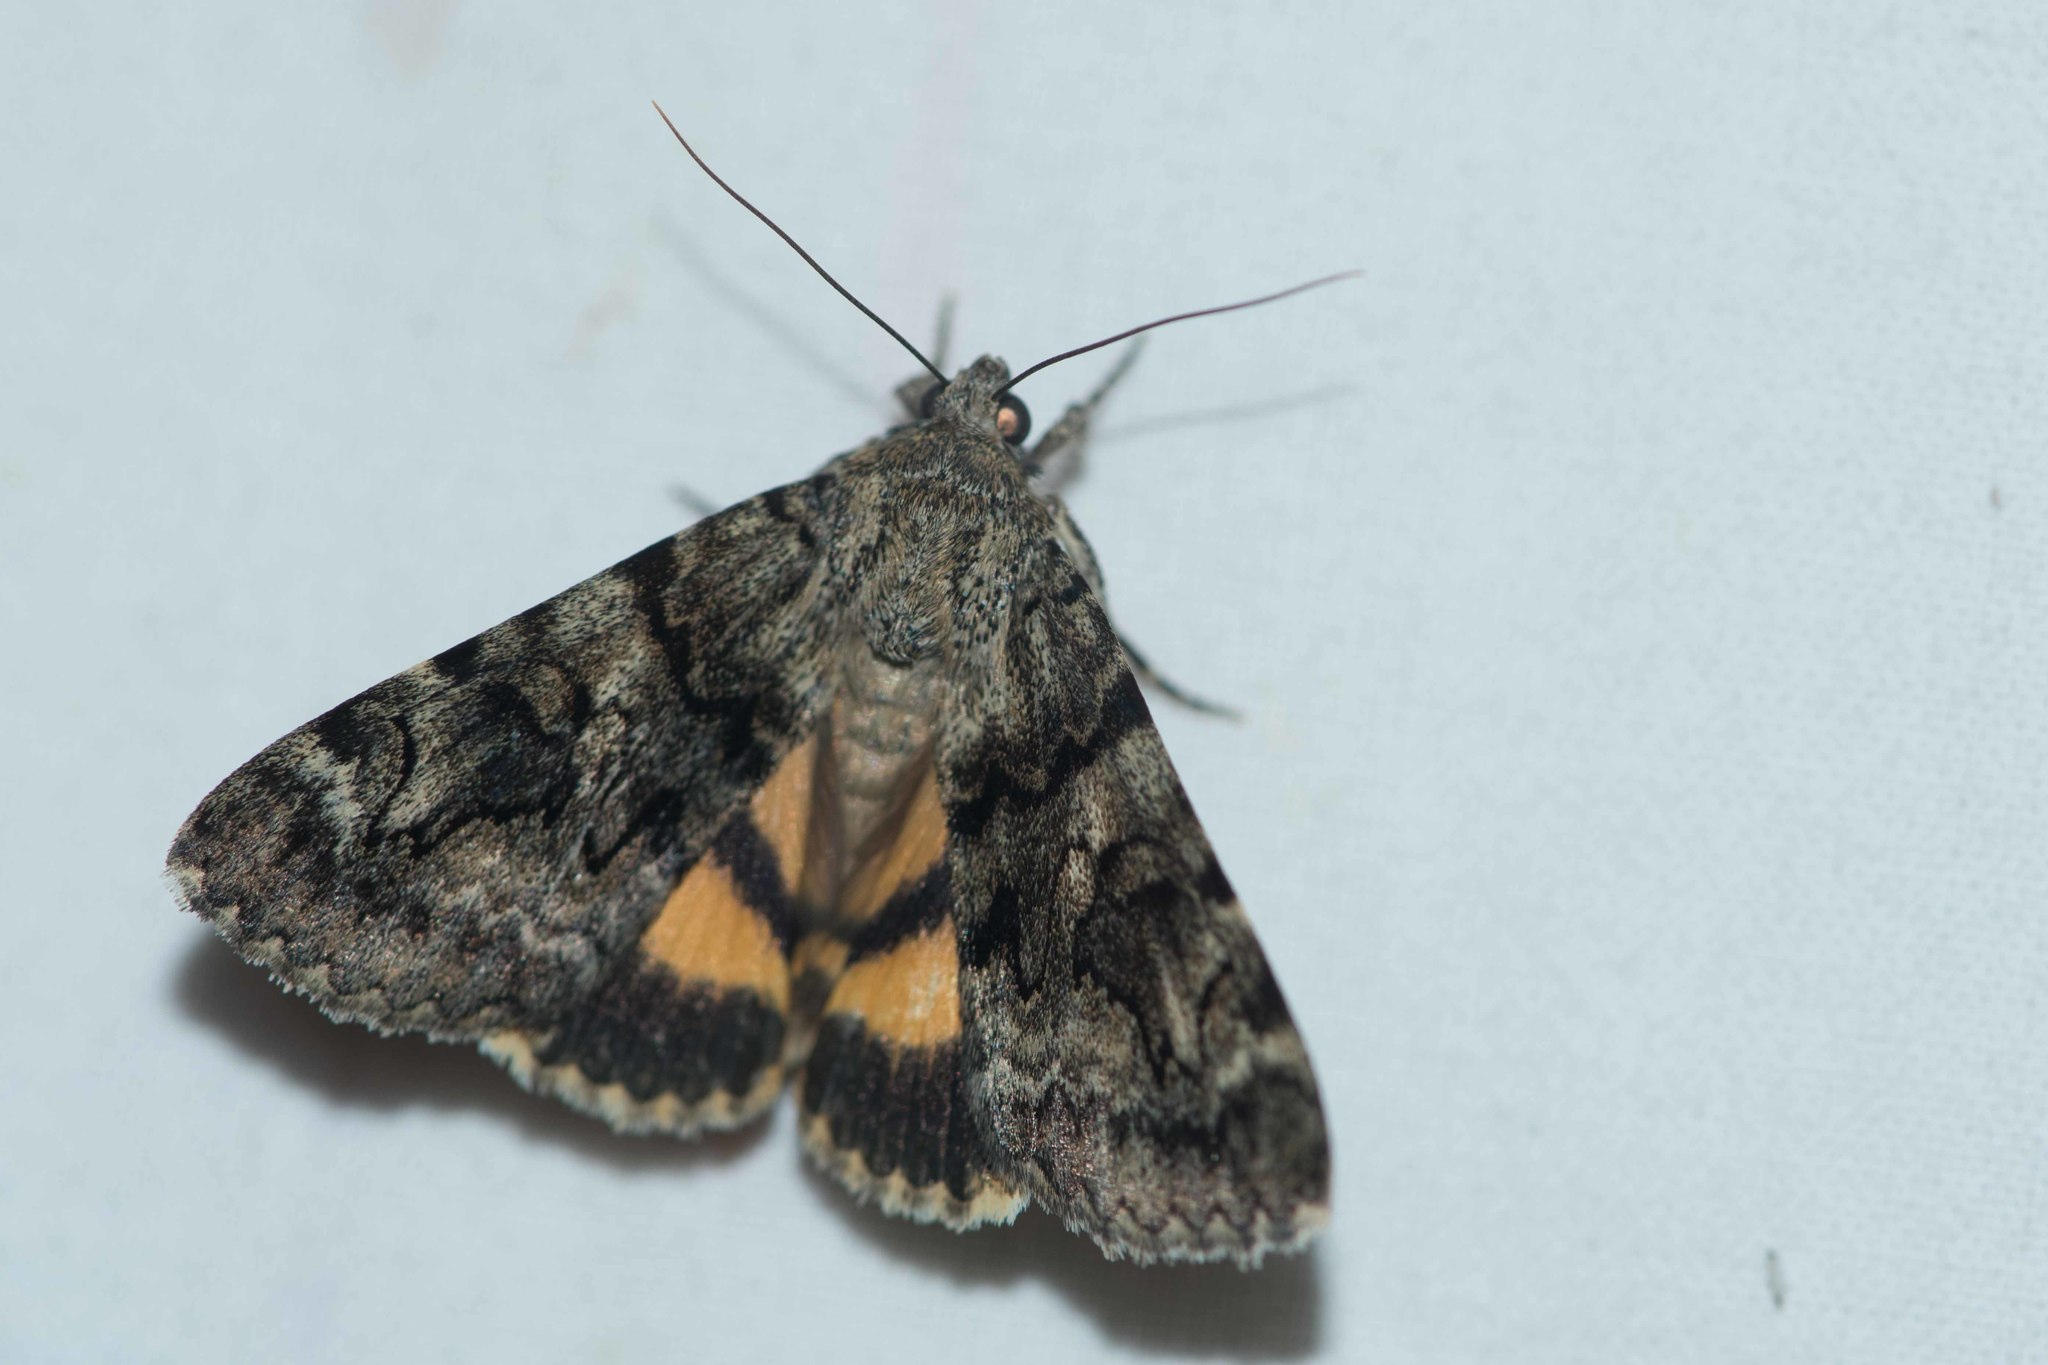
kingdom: Animalia
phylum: Arthropoda
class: Insecta
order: Lepidoptera
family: Erebidae
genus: Catocala
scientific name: Catocala nymphagoga
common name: Oak yellow underwing
